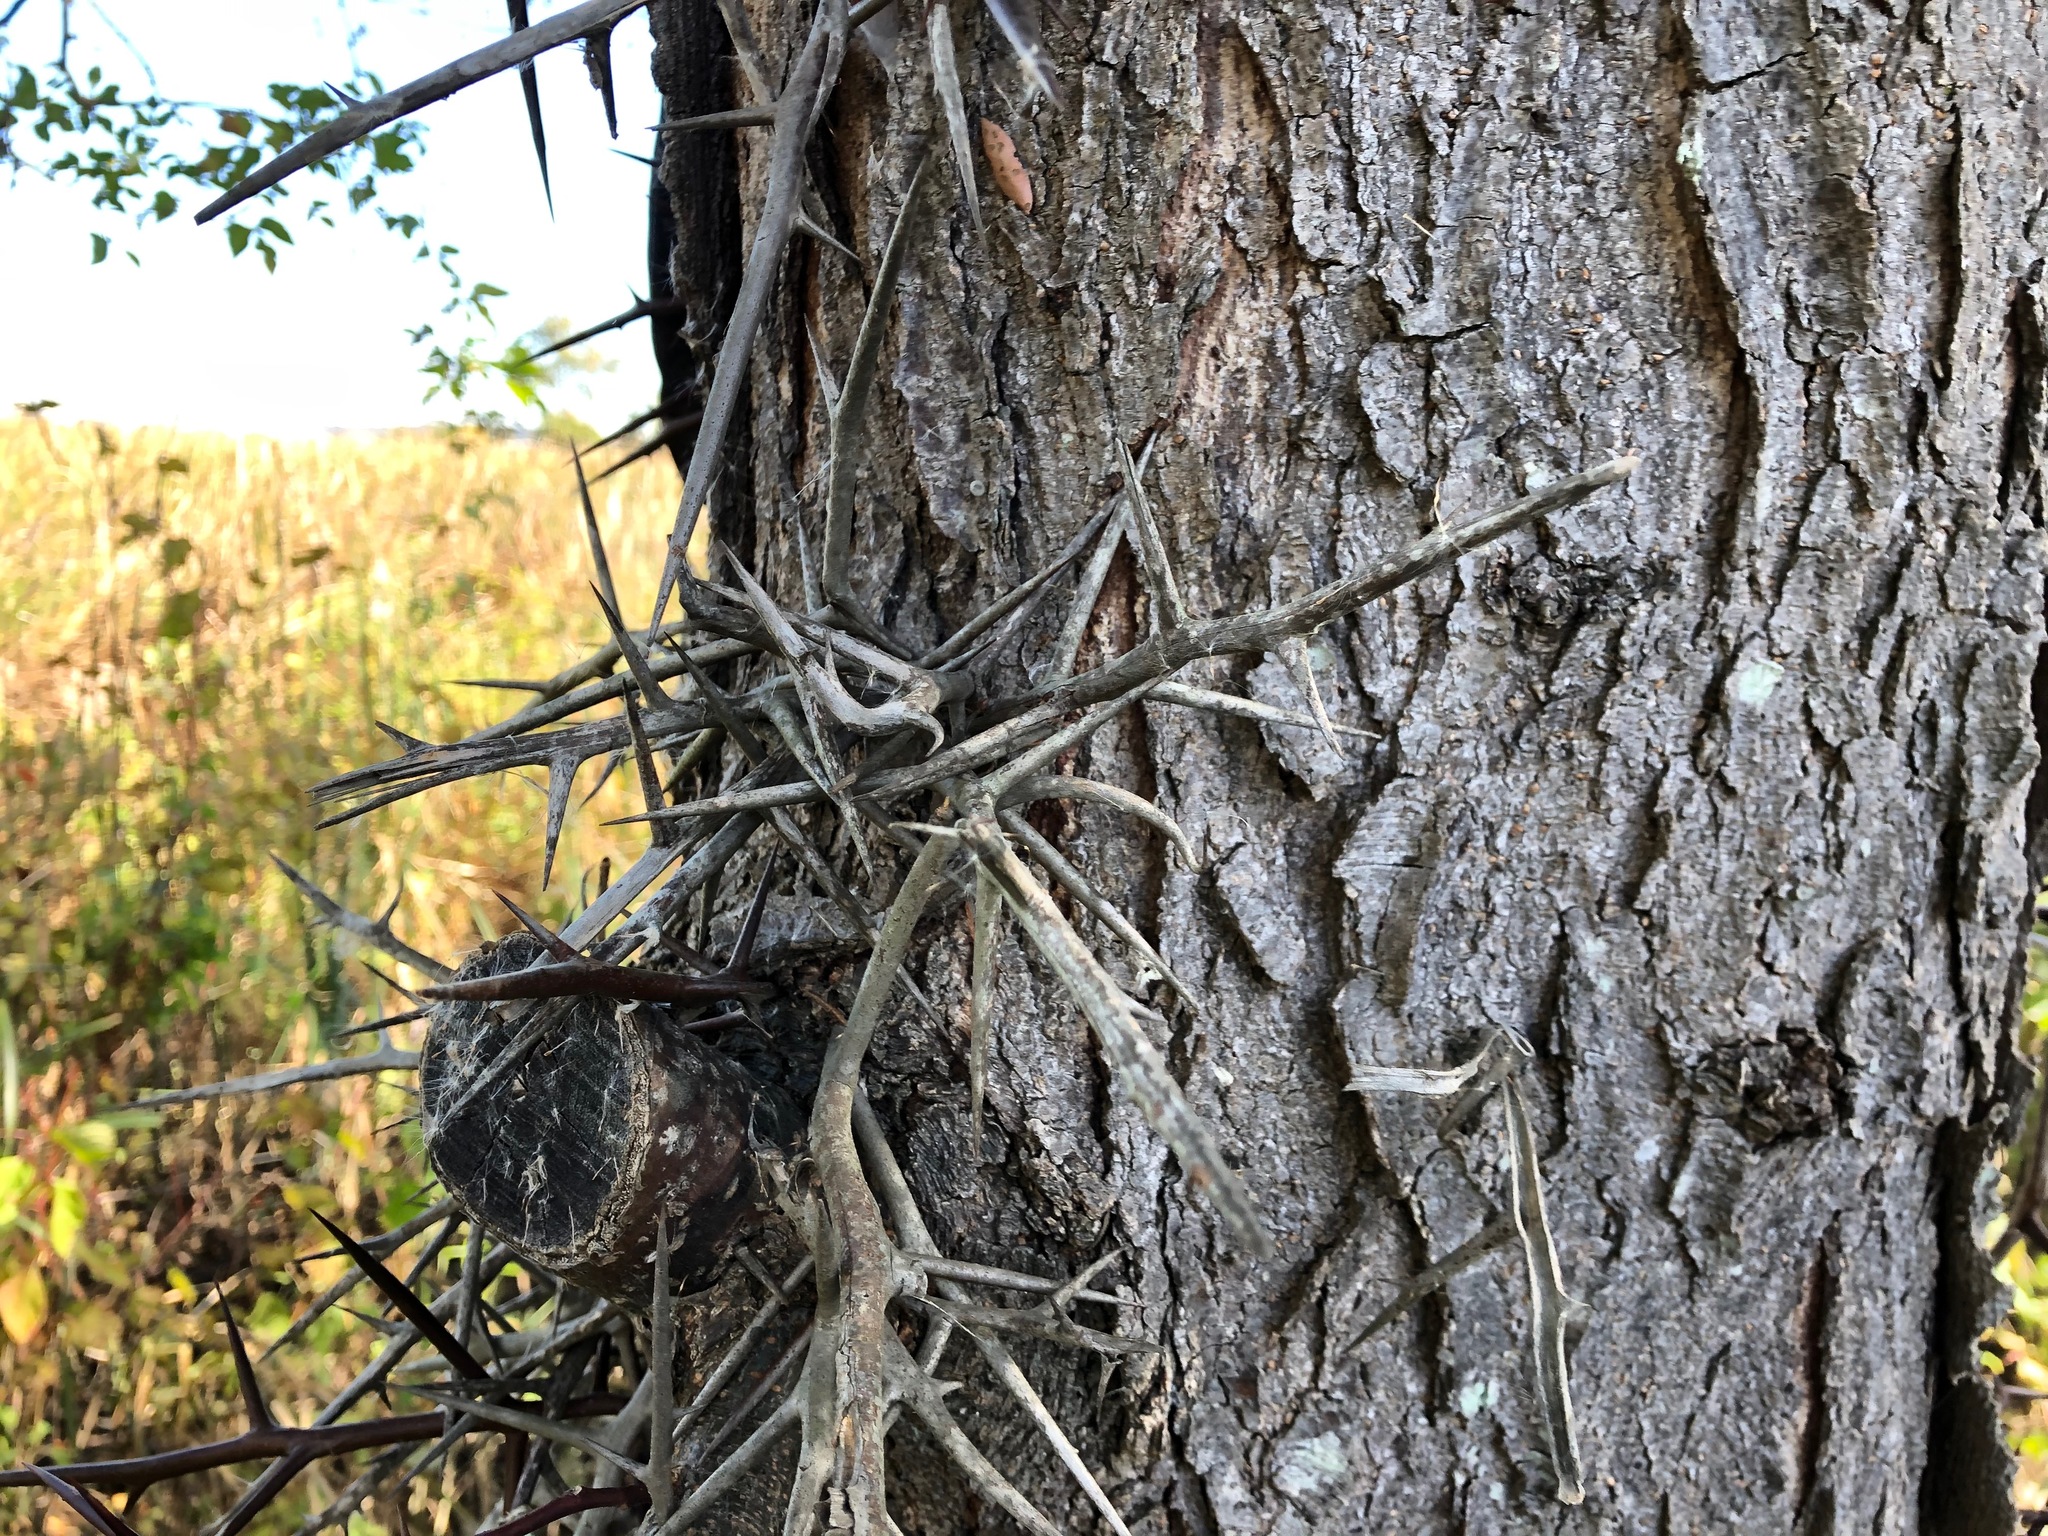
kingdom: Plantae
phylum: Tracheophyta
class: Magnoliopsida
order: Fabales
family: Fabaceae
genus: Gleditsia
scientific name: Gleditsia triacanthos
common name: Common honeylocust
